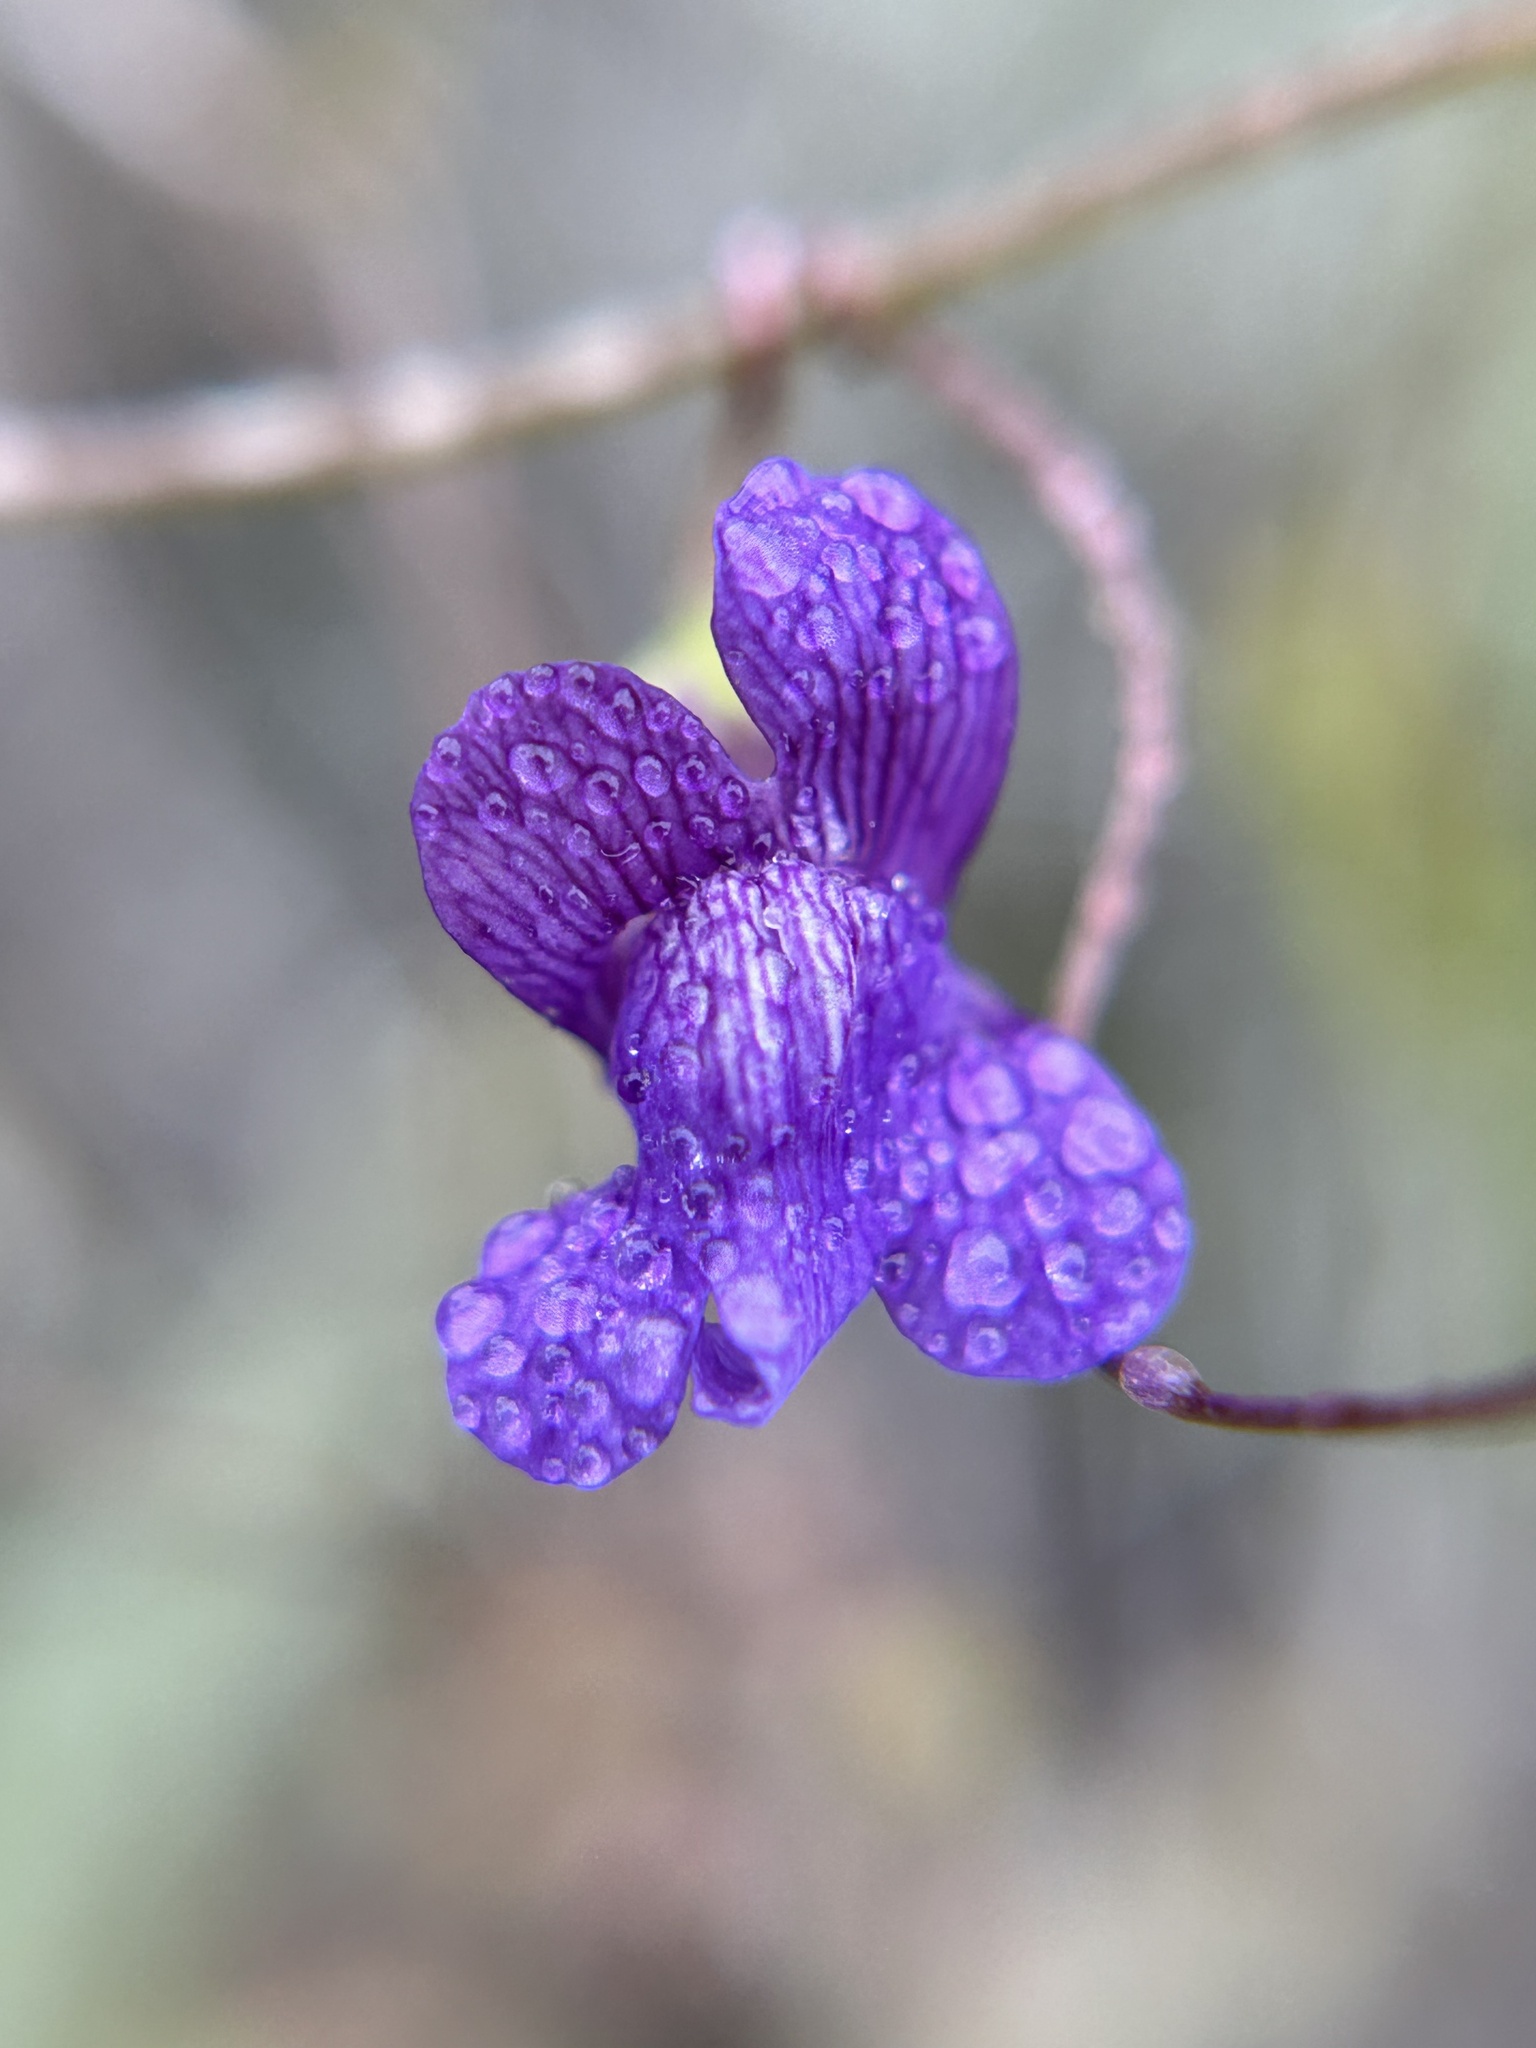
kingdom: Plantae
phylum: Tracheophyta
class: Magnoliopsida
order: Lamiales
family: Plantaginaceae
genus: Neogaerrhinum
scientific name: Neogaerrhinum strictum
